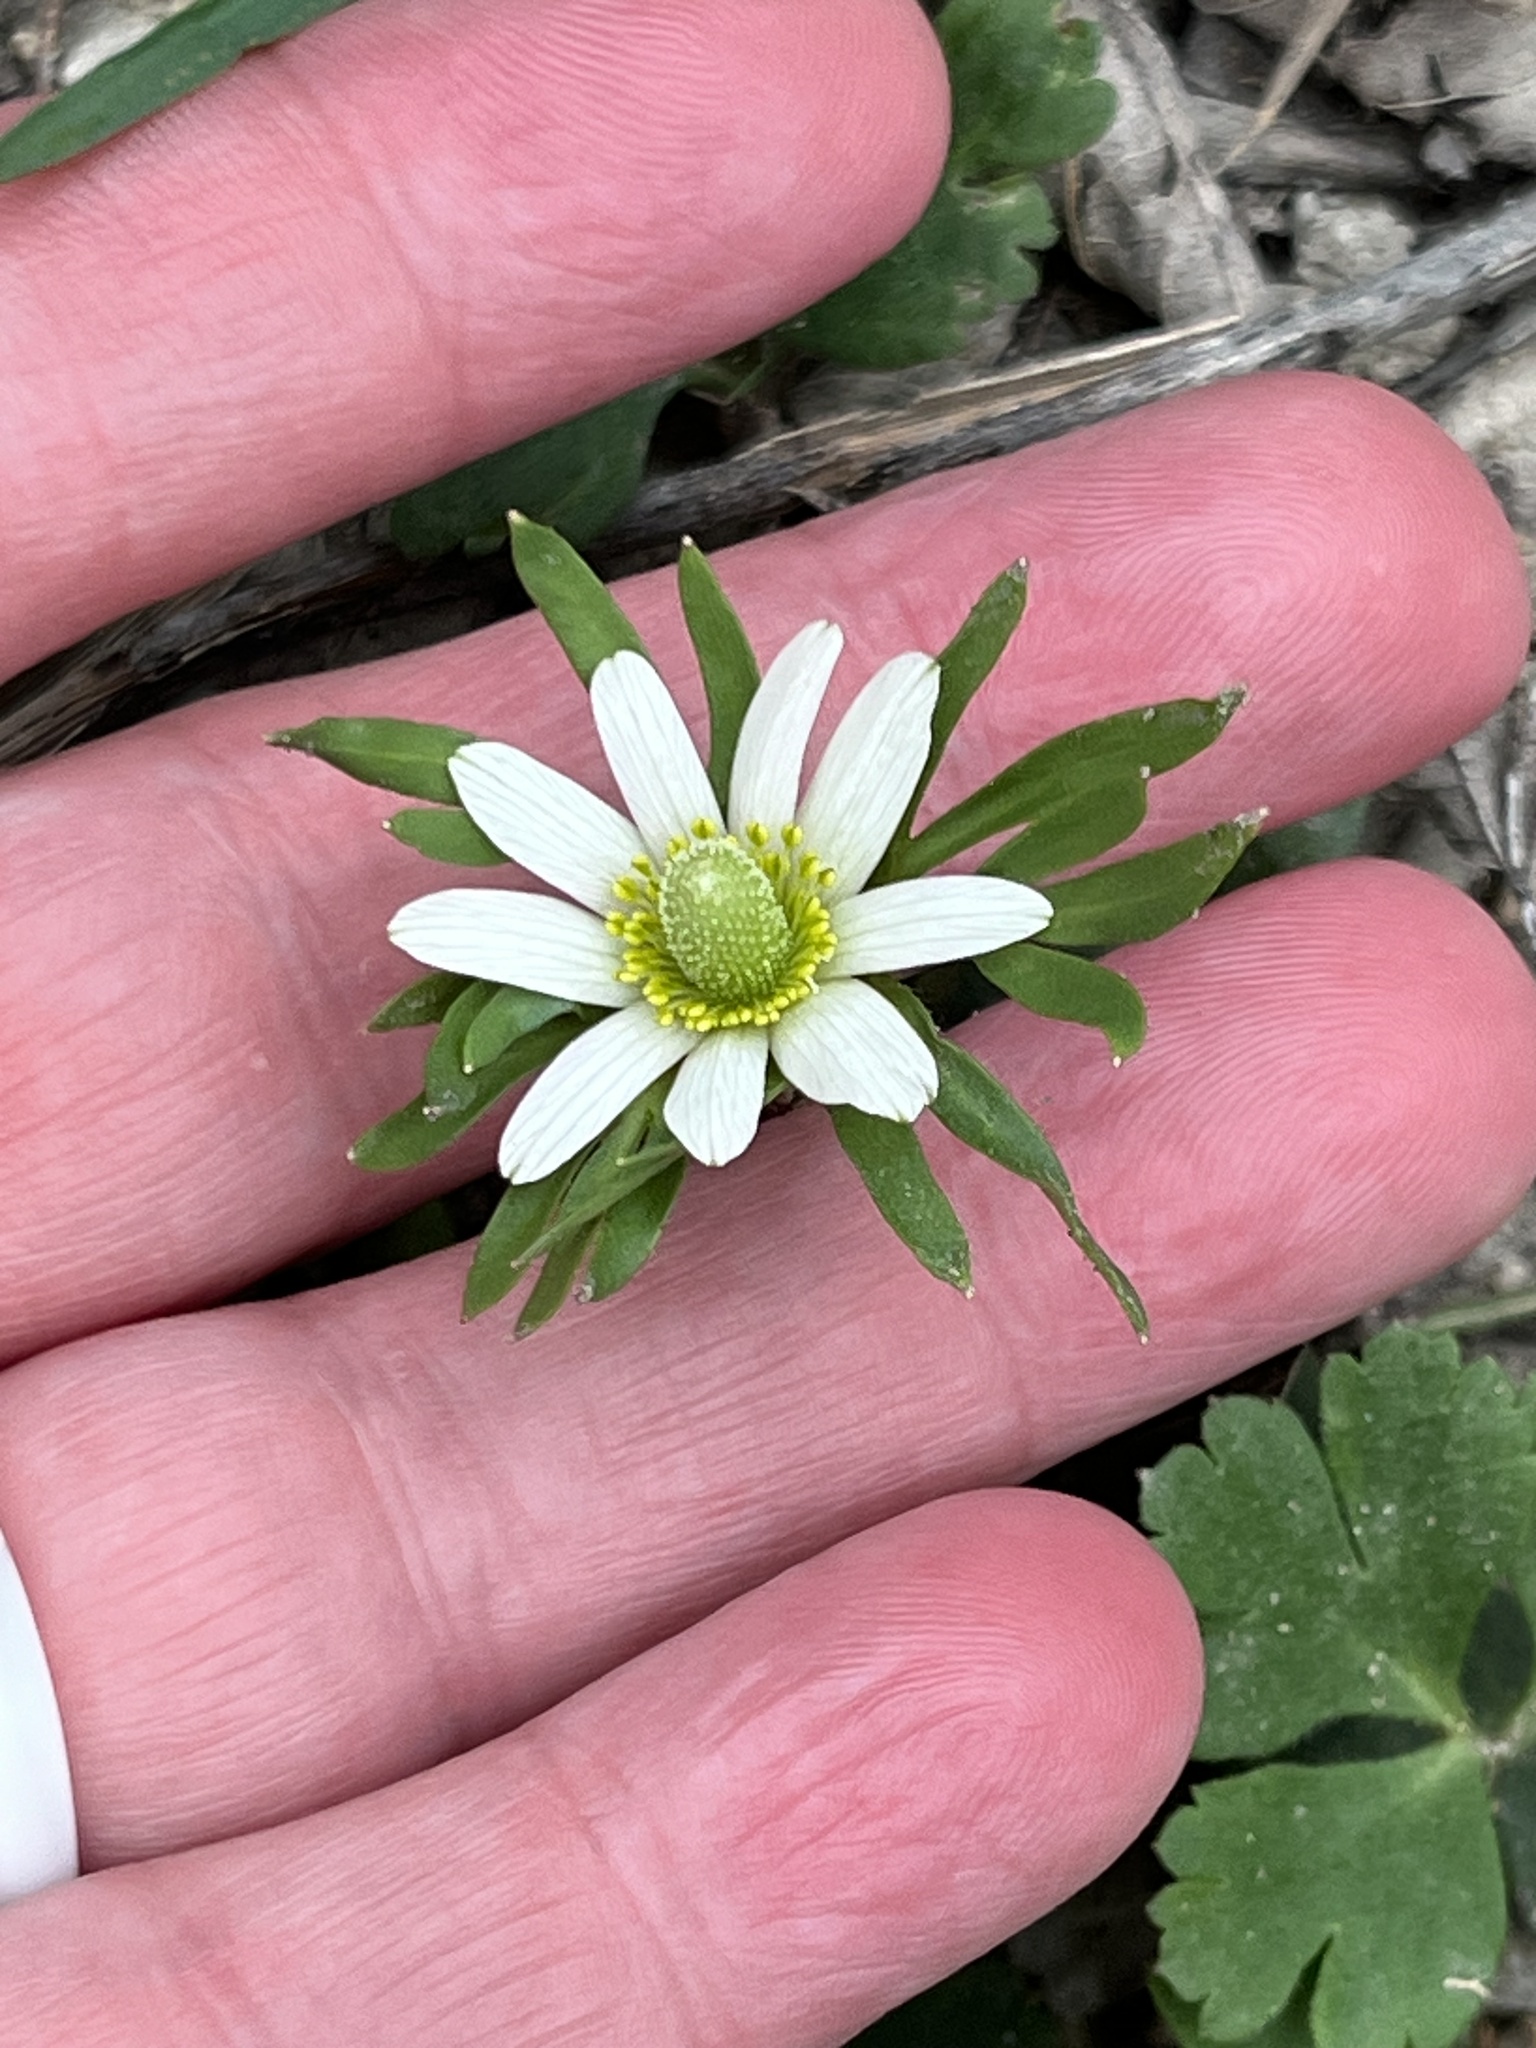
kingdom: Plantae
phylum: Tracheophyta
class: Magnoliopsida
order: Ranunculales
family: Ranunculaceae
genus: Anemone
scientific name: Anemone berlandieri
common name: Ten-petal anemone
